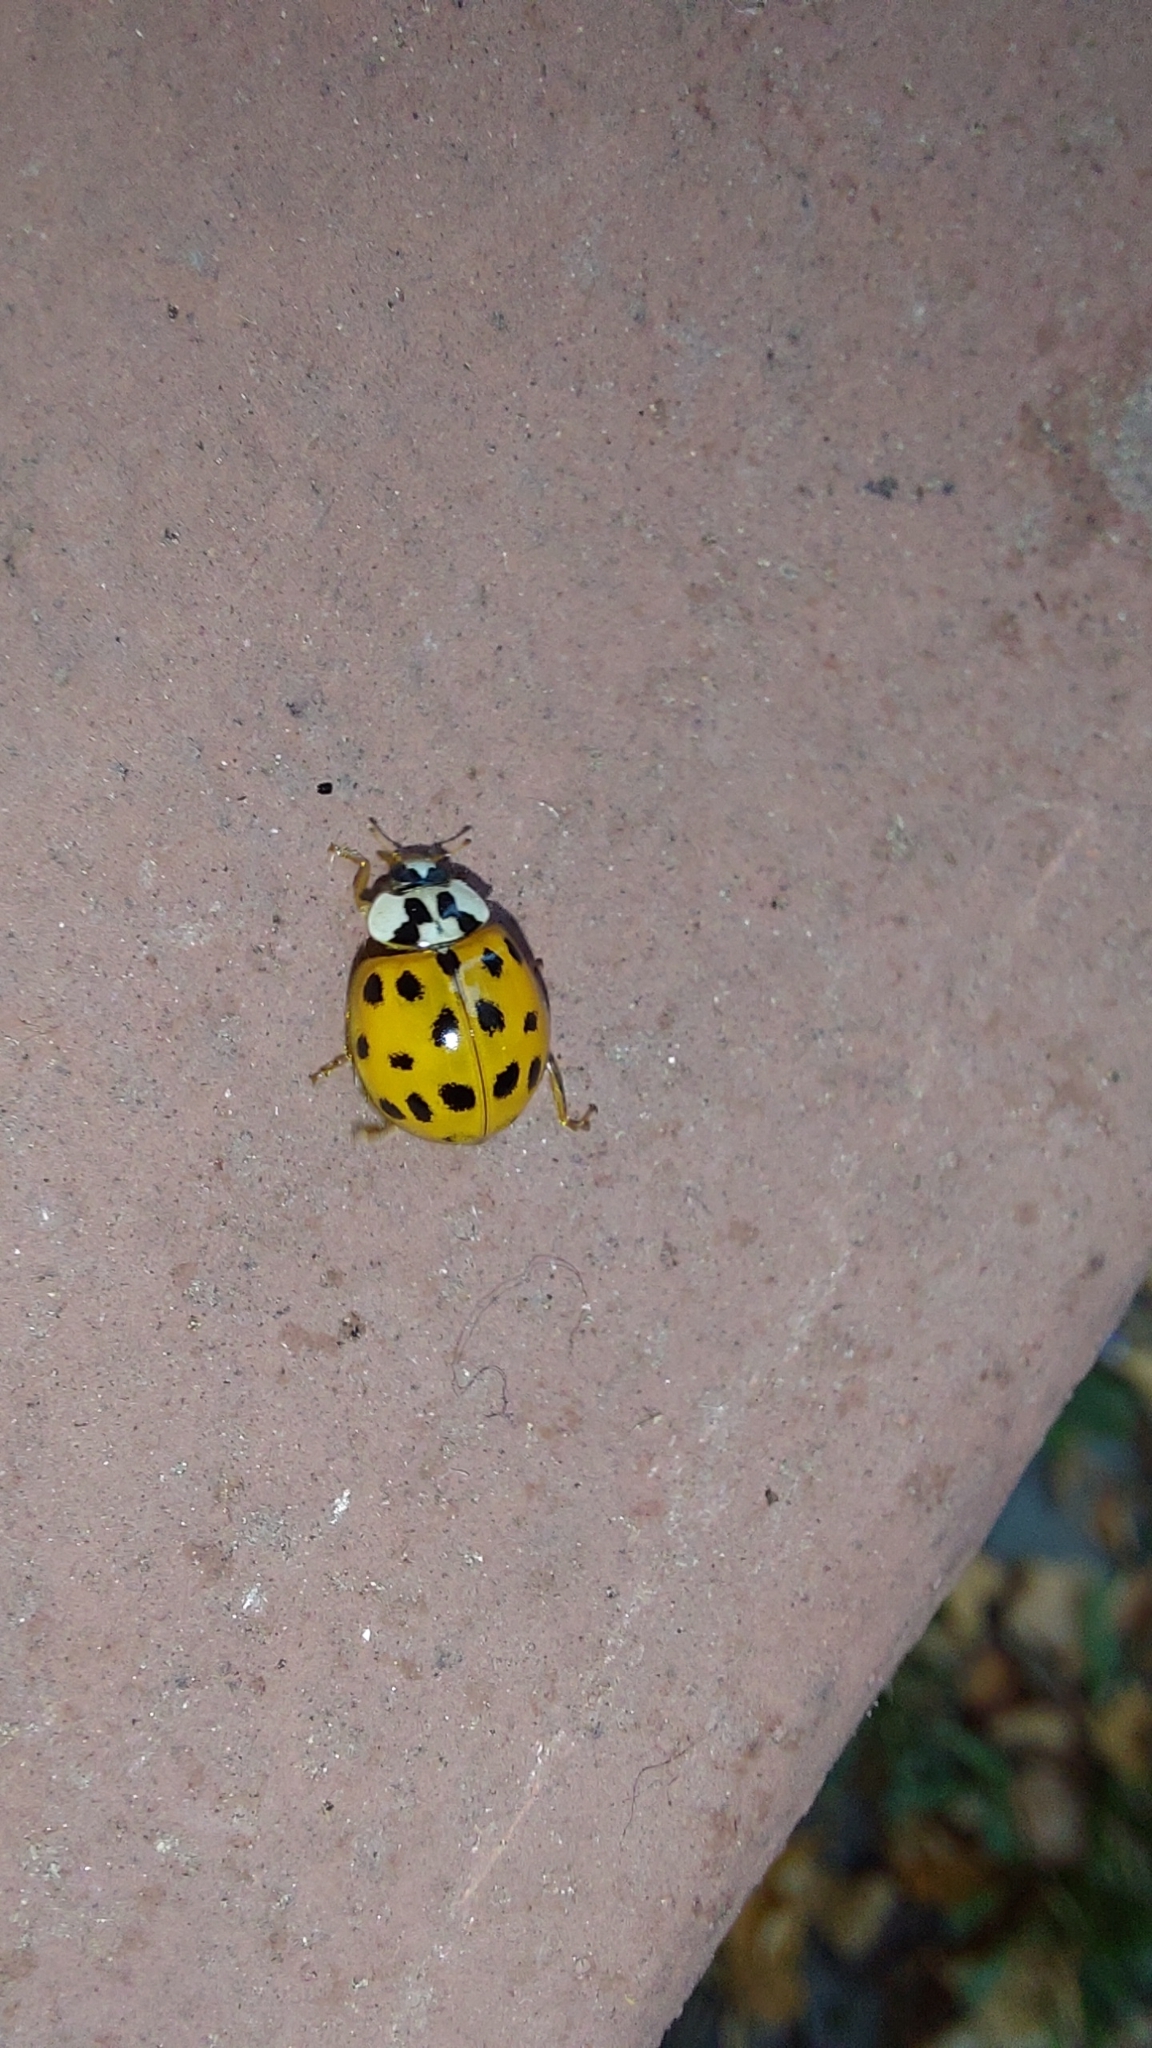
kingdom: Animalia
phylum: Arthropoda
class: Insecta
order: Coleoptera
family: Coccinellidae
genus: Harmonia
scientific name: Harmonia axyridis
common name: Harlequin ladybird
